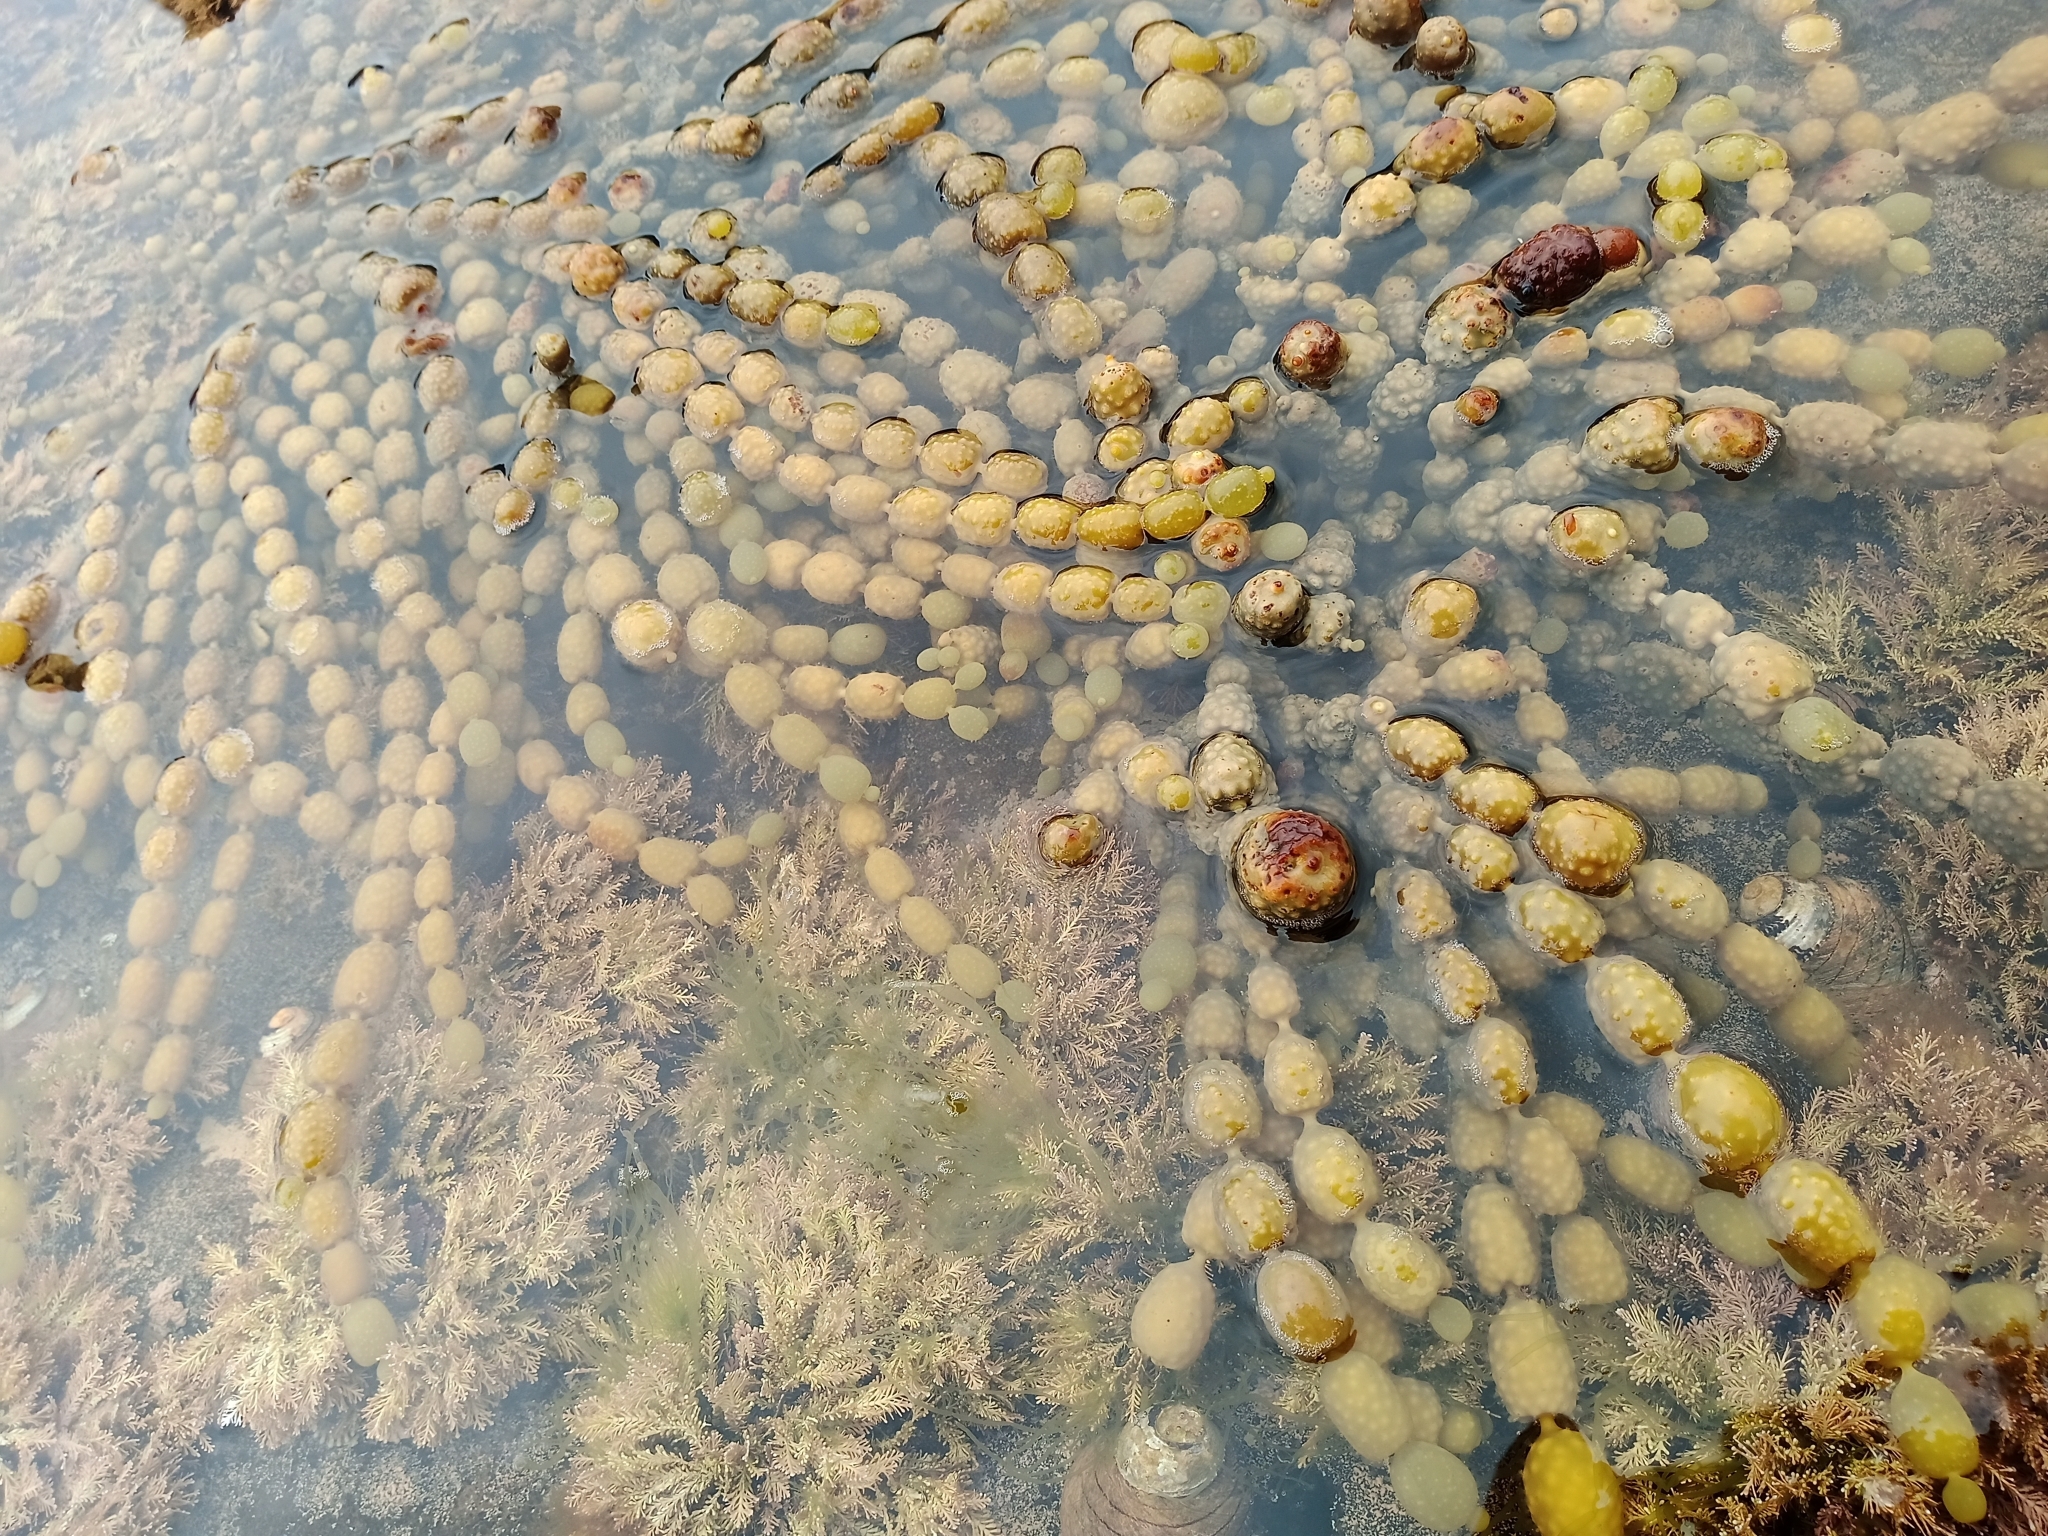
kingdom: Chromista
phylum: Ochrophyta
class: Phaeophyceae
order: Fucales
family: Hormosiraceae
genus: Hormosira
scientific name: Hormosira banksii
